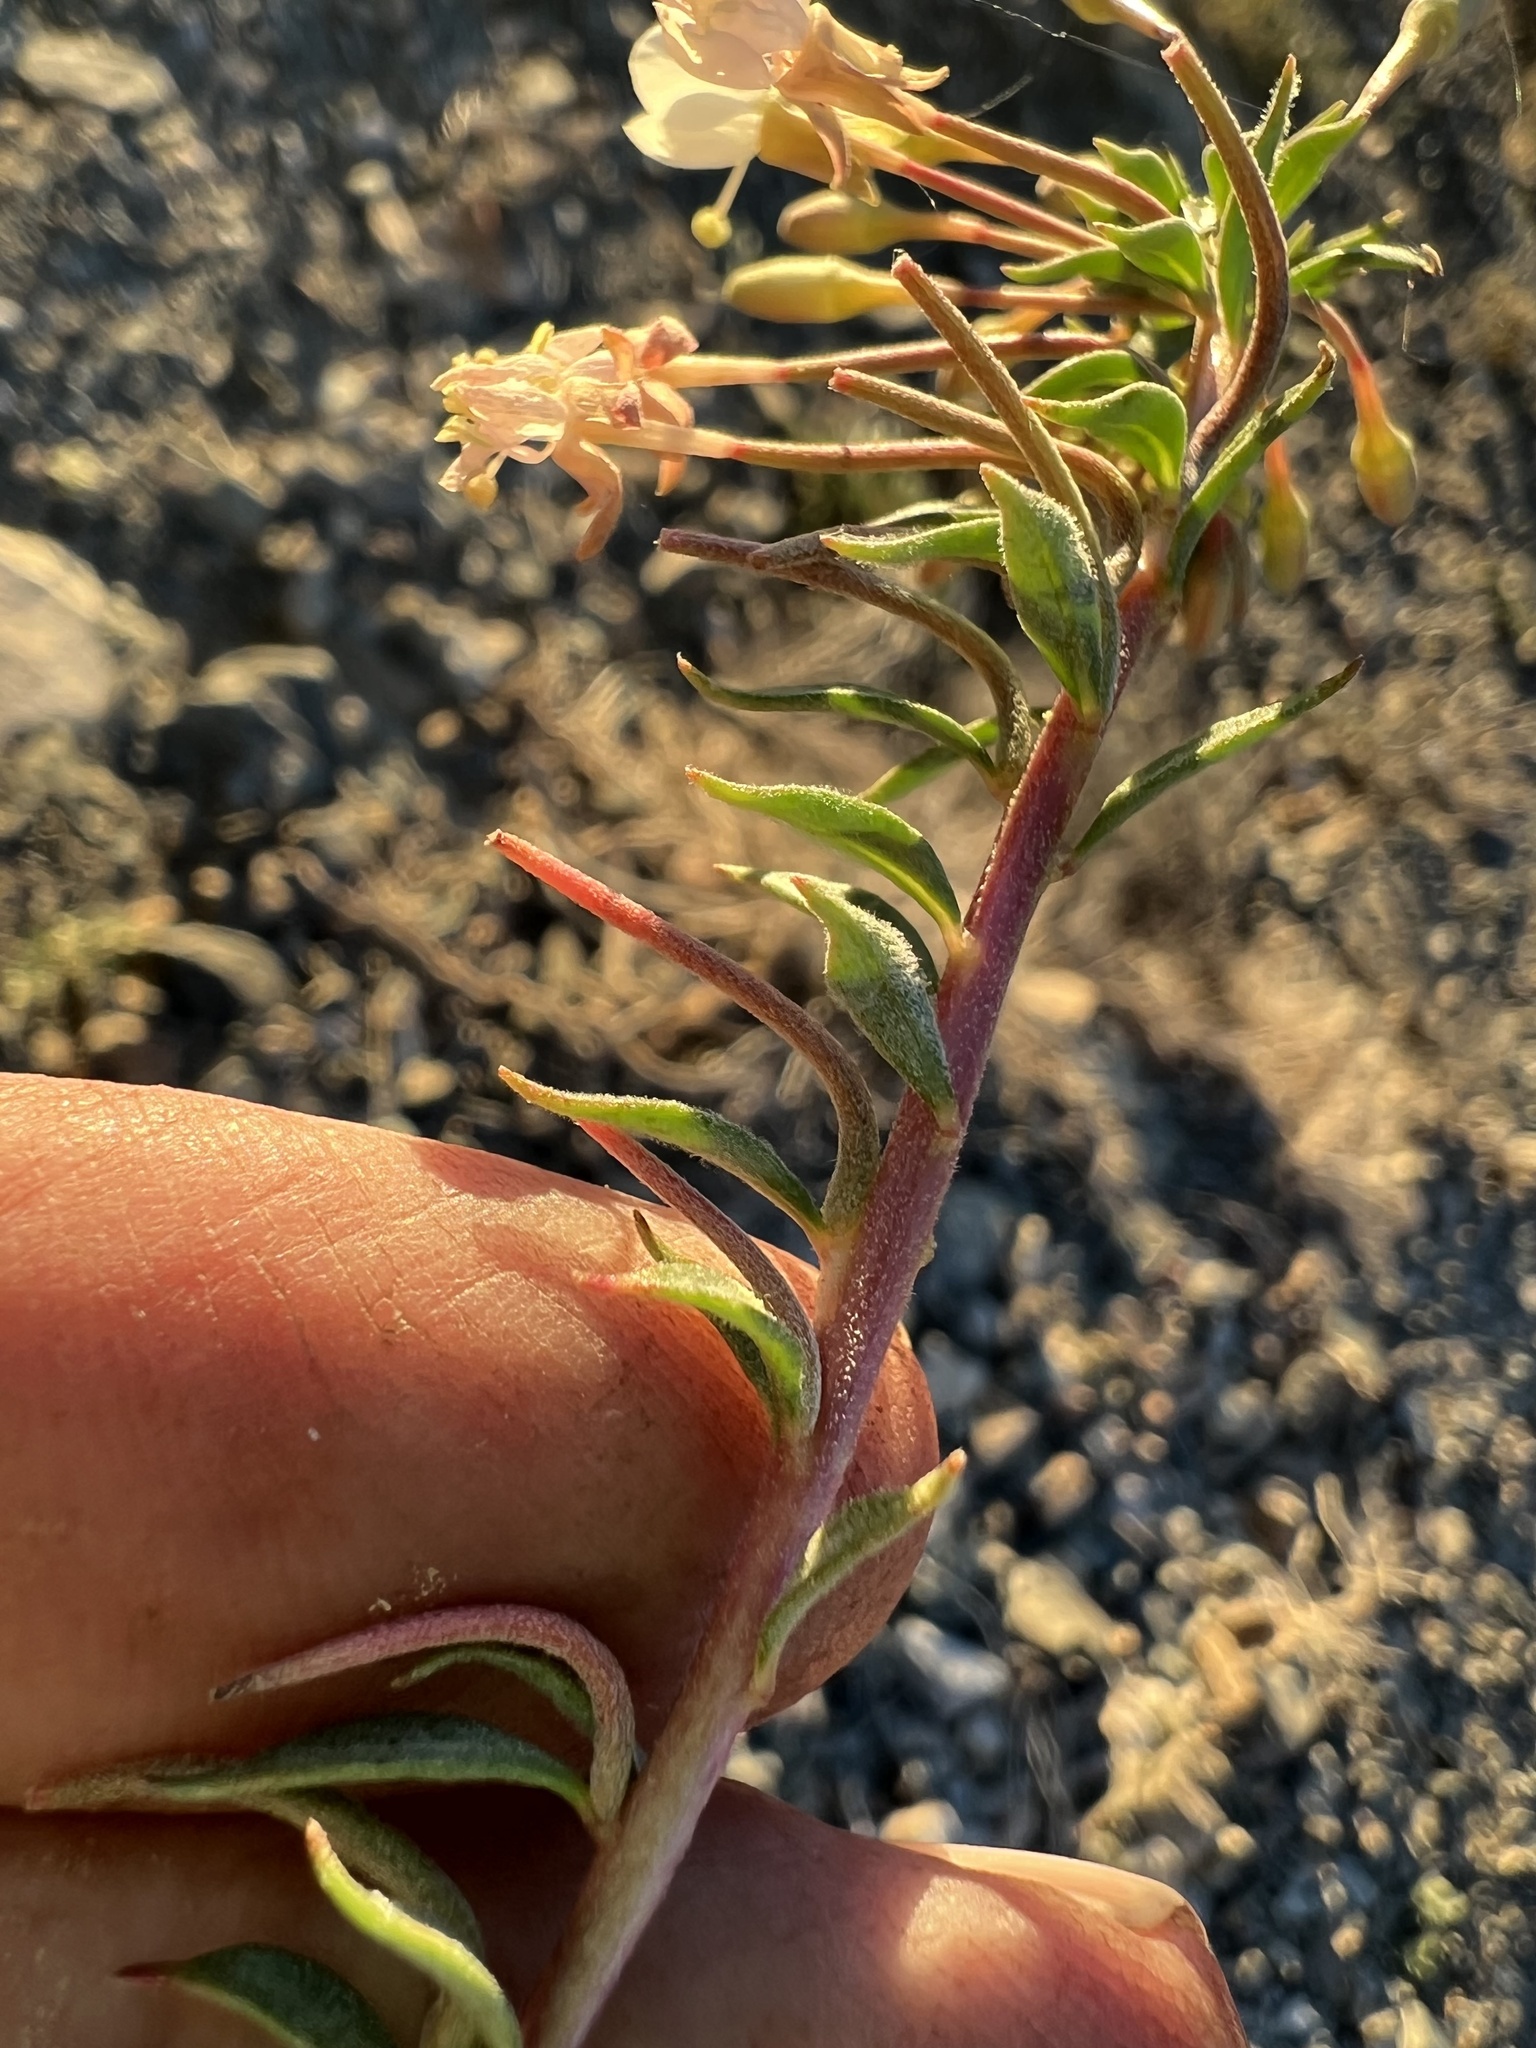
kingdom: Plantae
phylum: Tracheophyta
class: Magnoliopsida
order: Myrtales
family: Onagraceae
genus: Eremothera
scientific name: Eremothera boothii
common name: Booth's evening primrose
